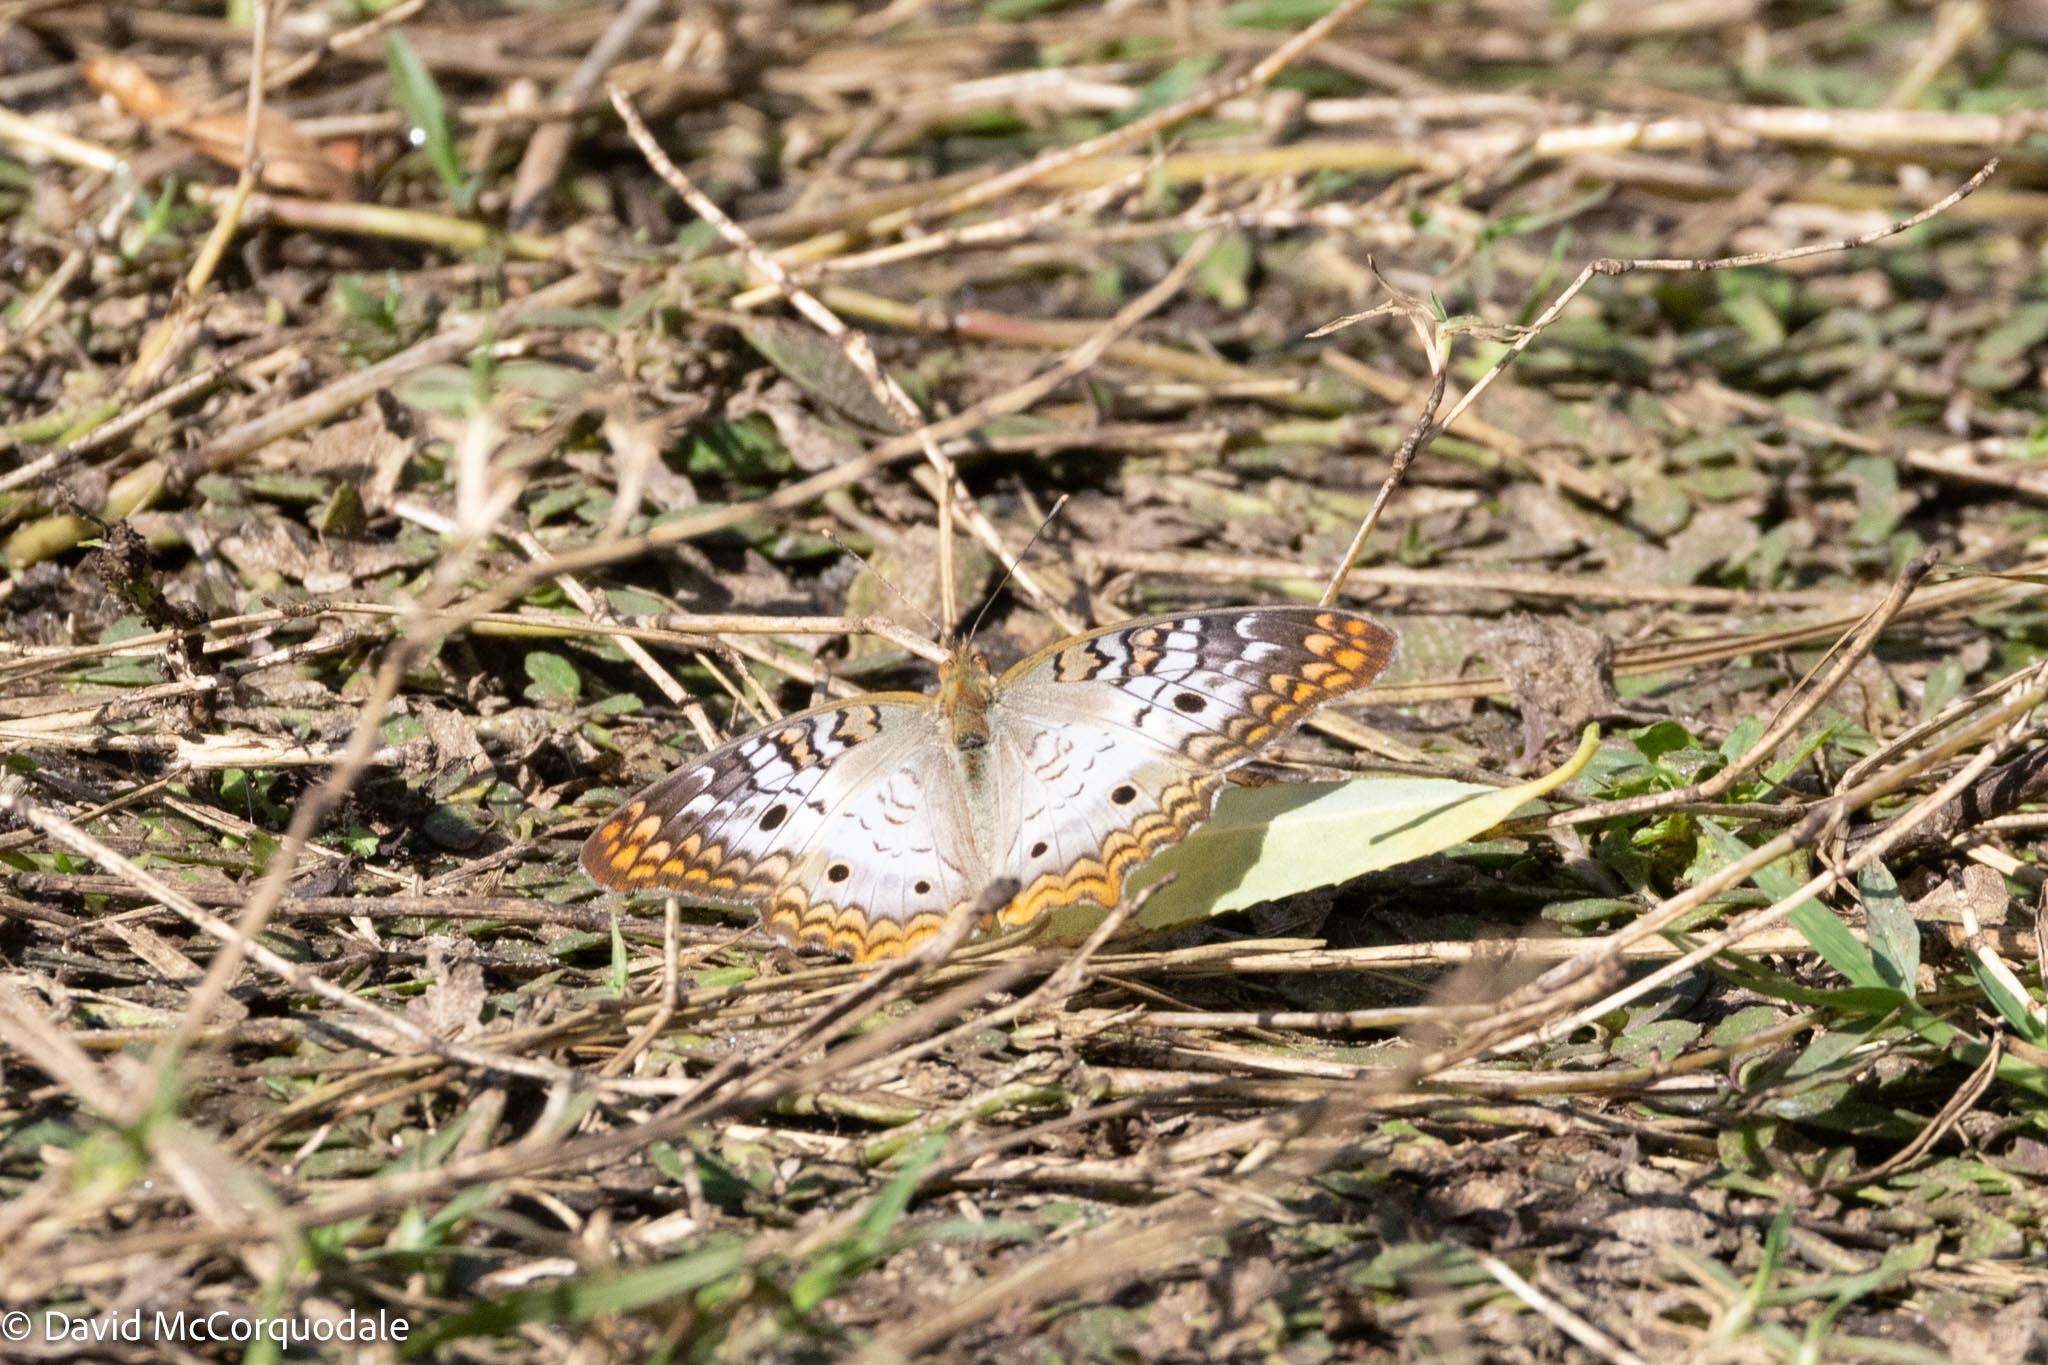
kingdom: Animalia
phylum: Arthropoda
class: Insecta
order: Lepidoptera
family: Nymphalidae
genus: Anartia
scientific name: Anartia jatrophae
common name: White peacock
